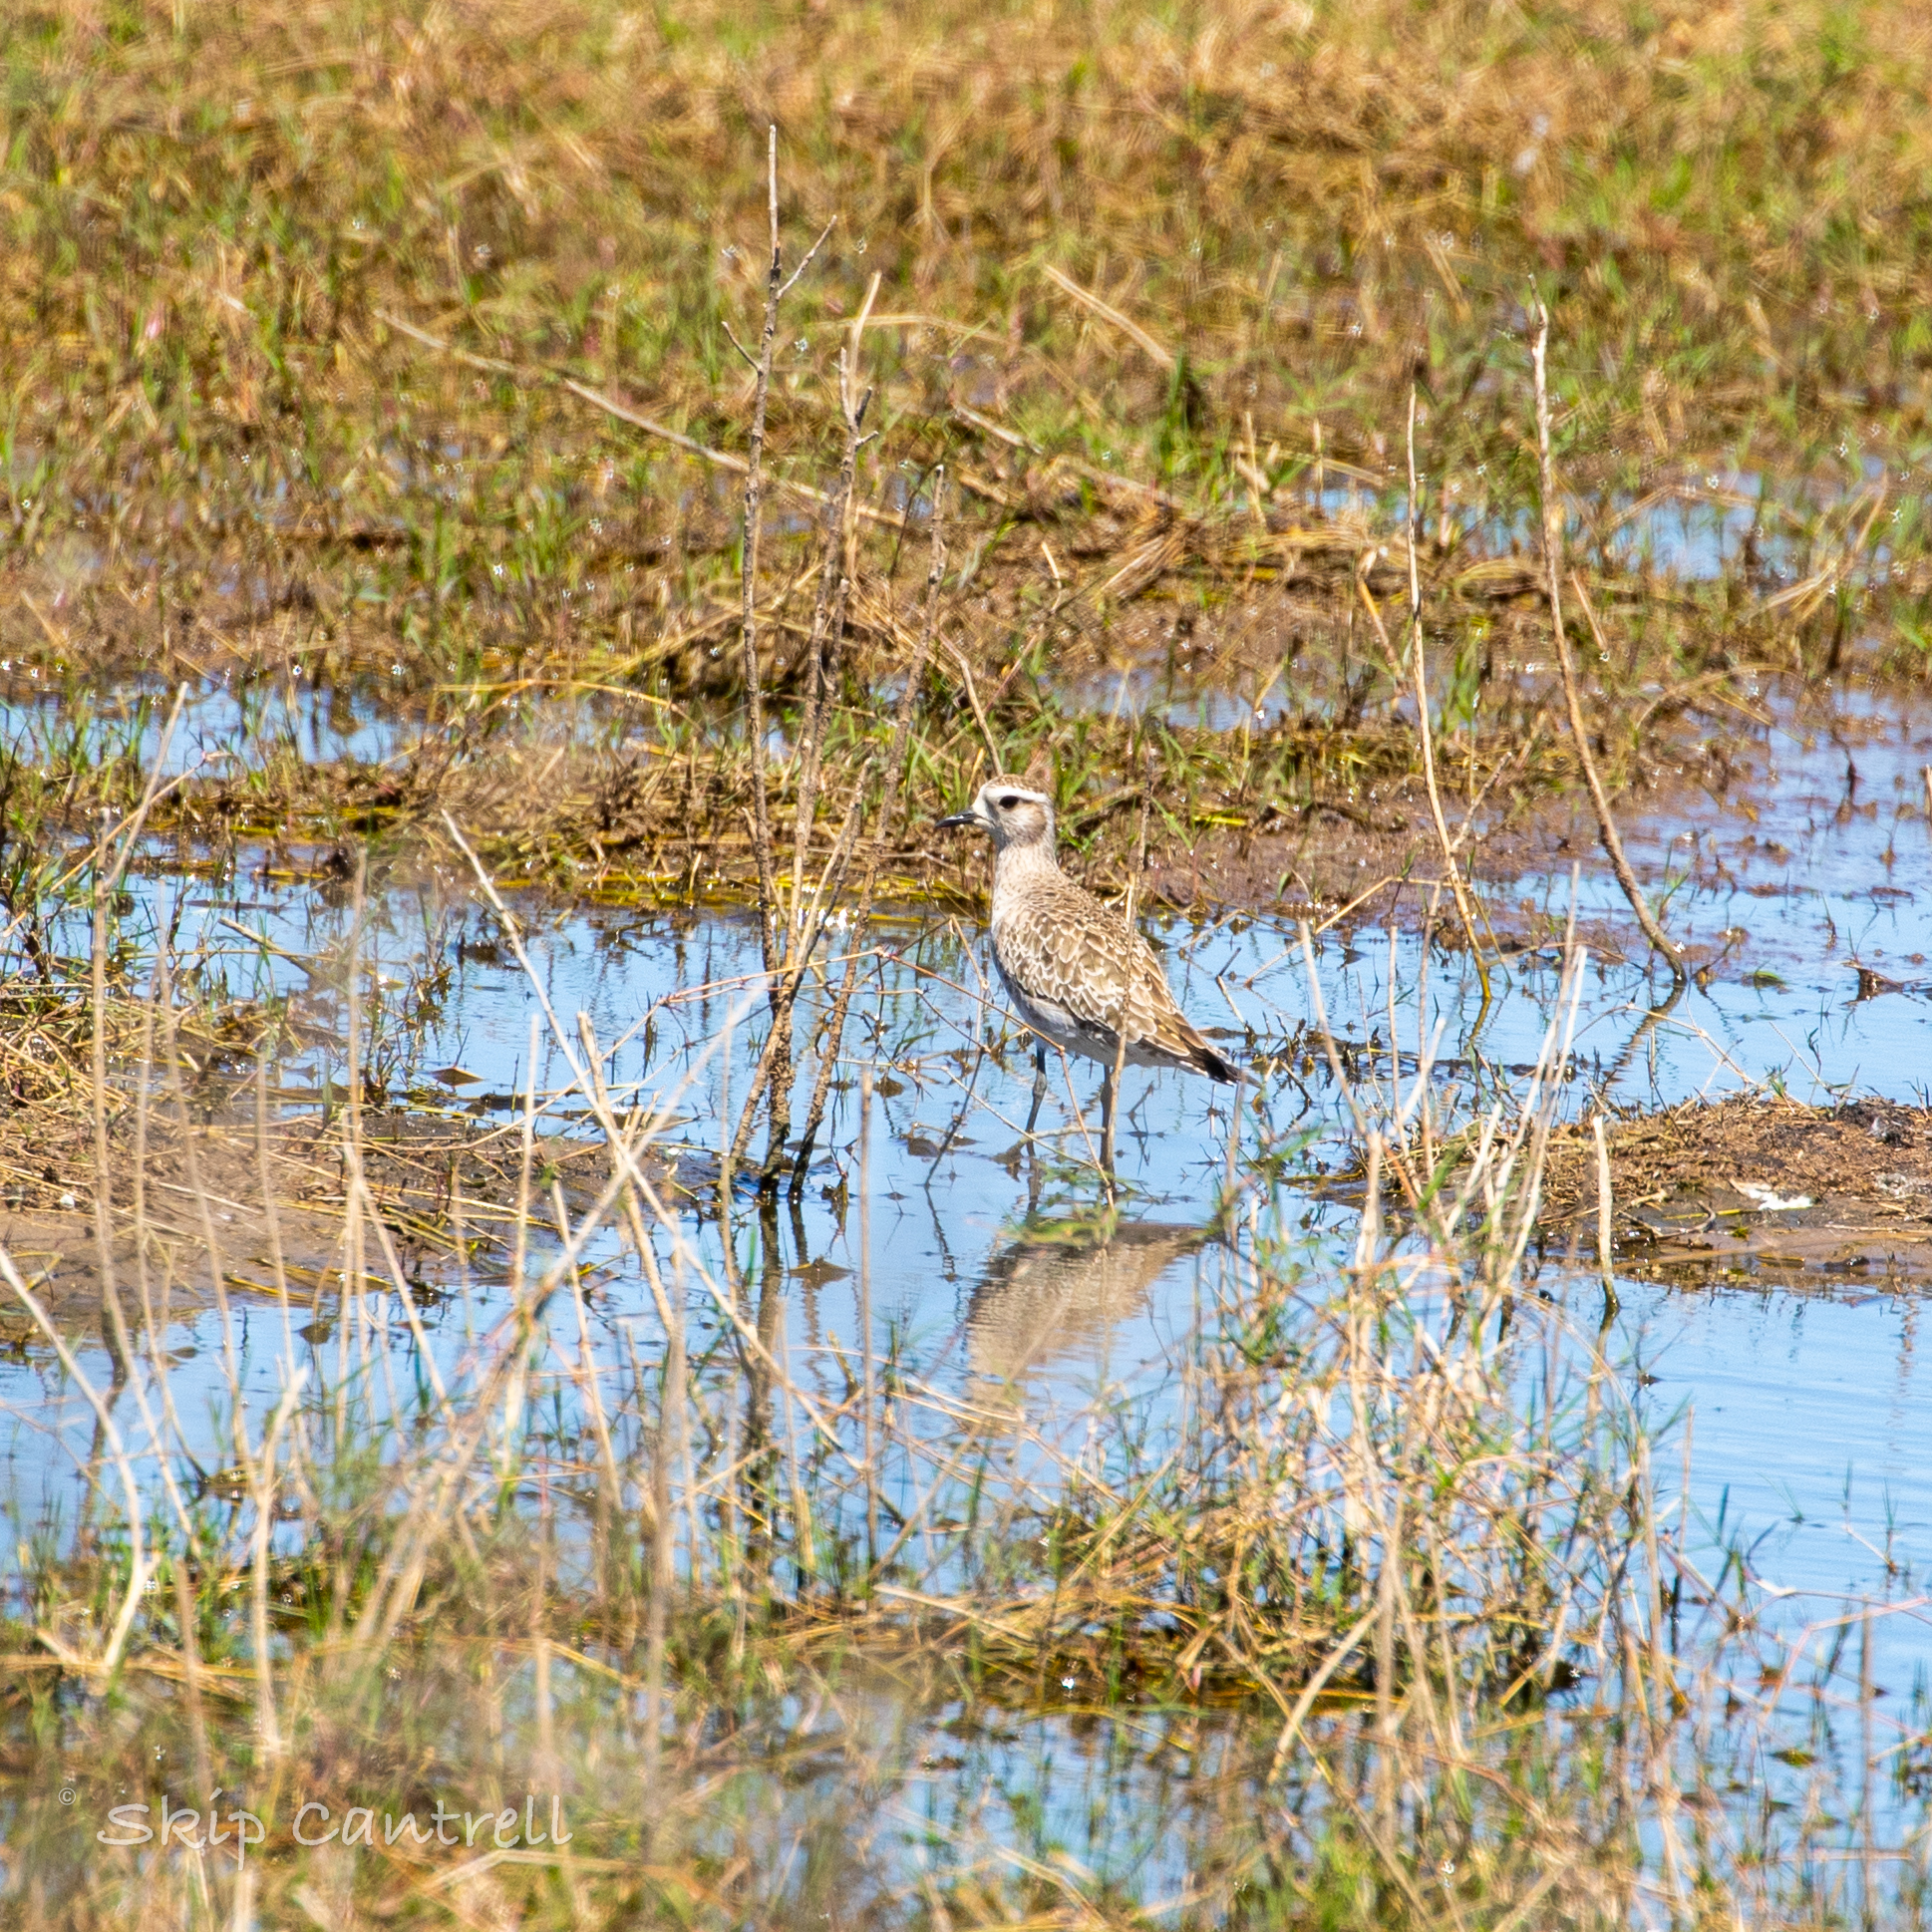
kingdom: Animalia
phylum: Chordata
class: Aves
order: Charadriiformes
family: Charadriidae
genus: Pluvialis
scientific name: Pluvialis dominica
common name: American golden plover
